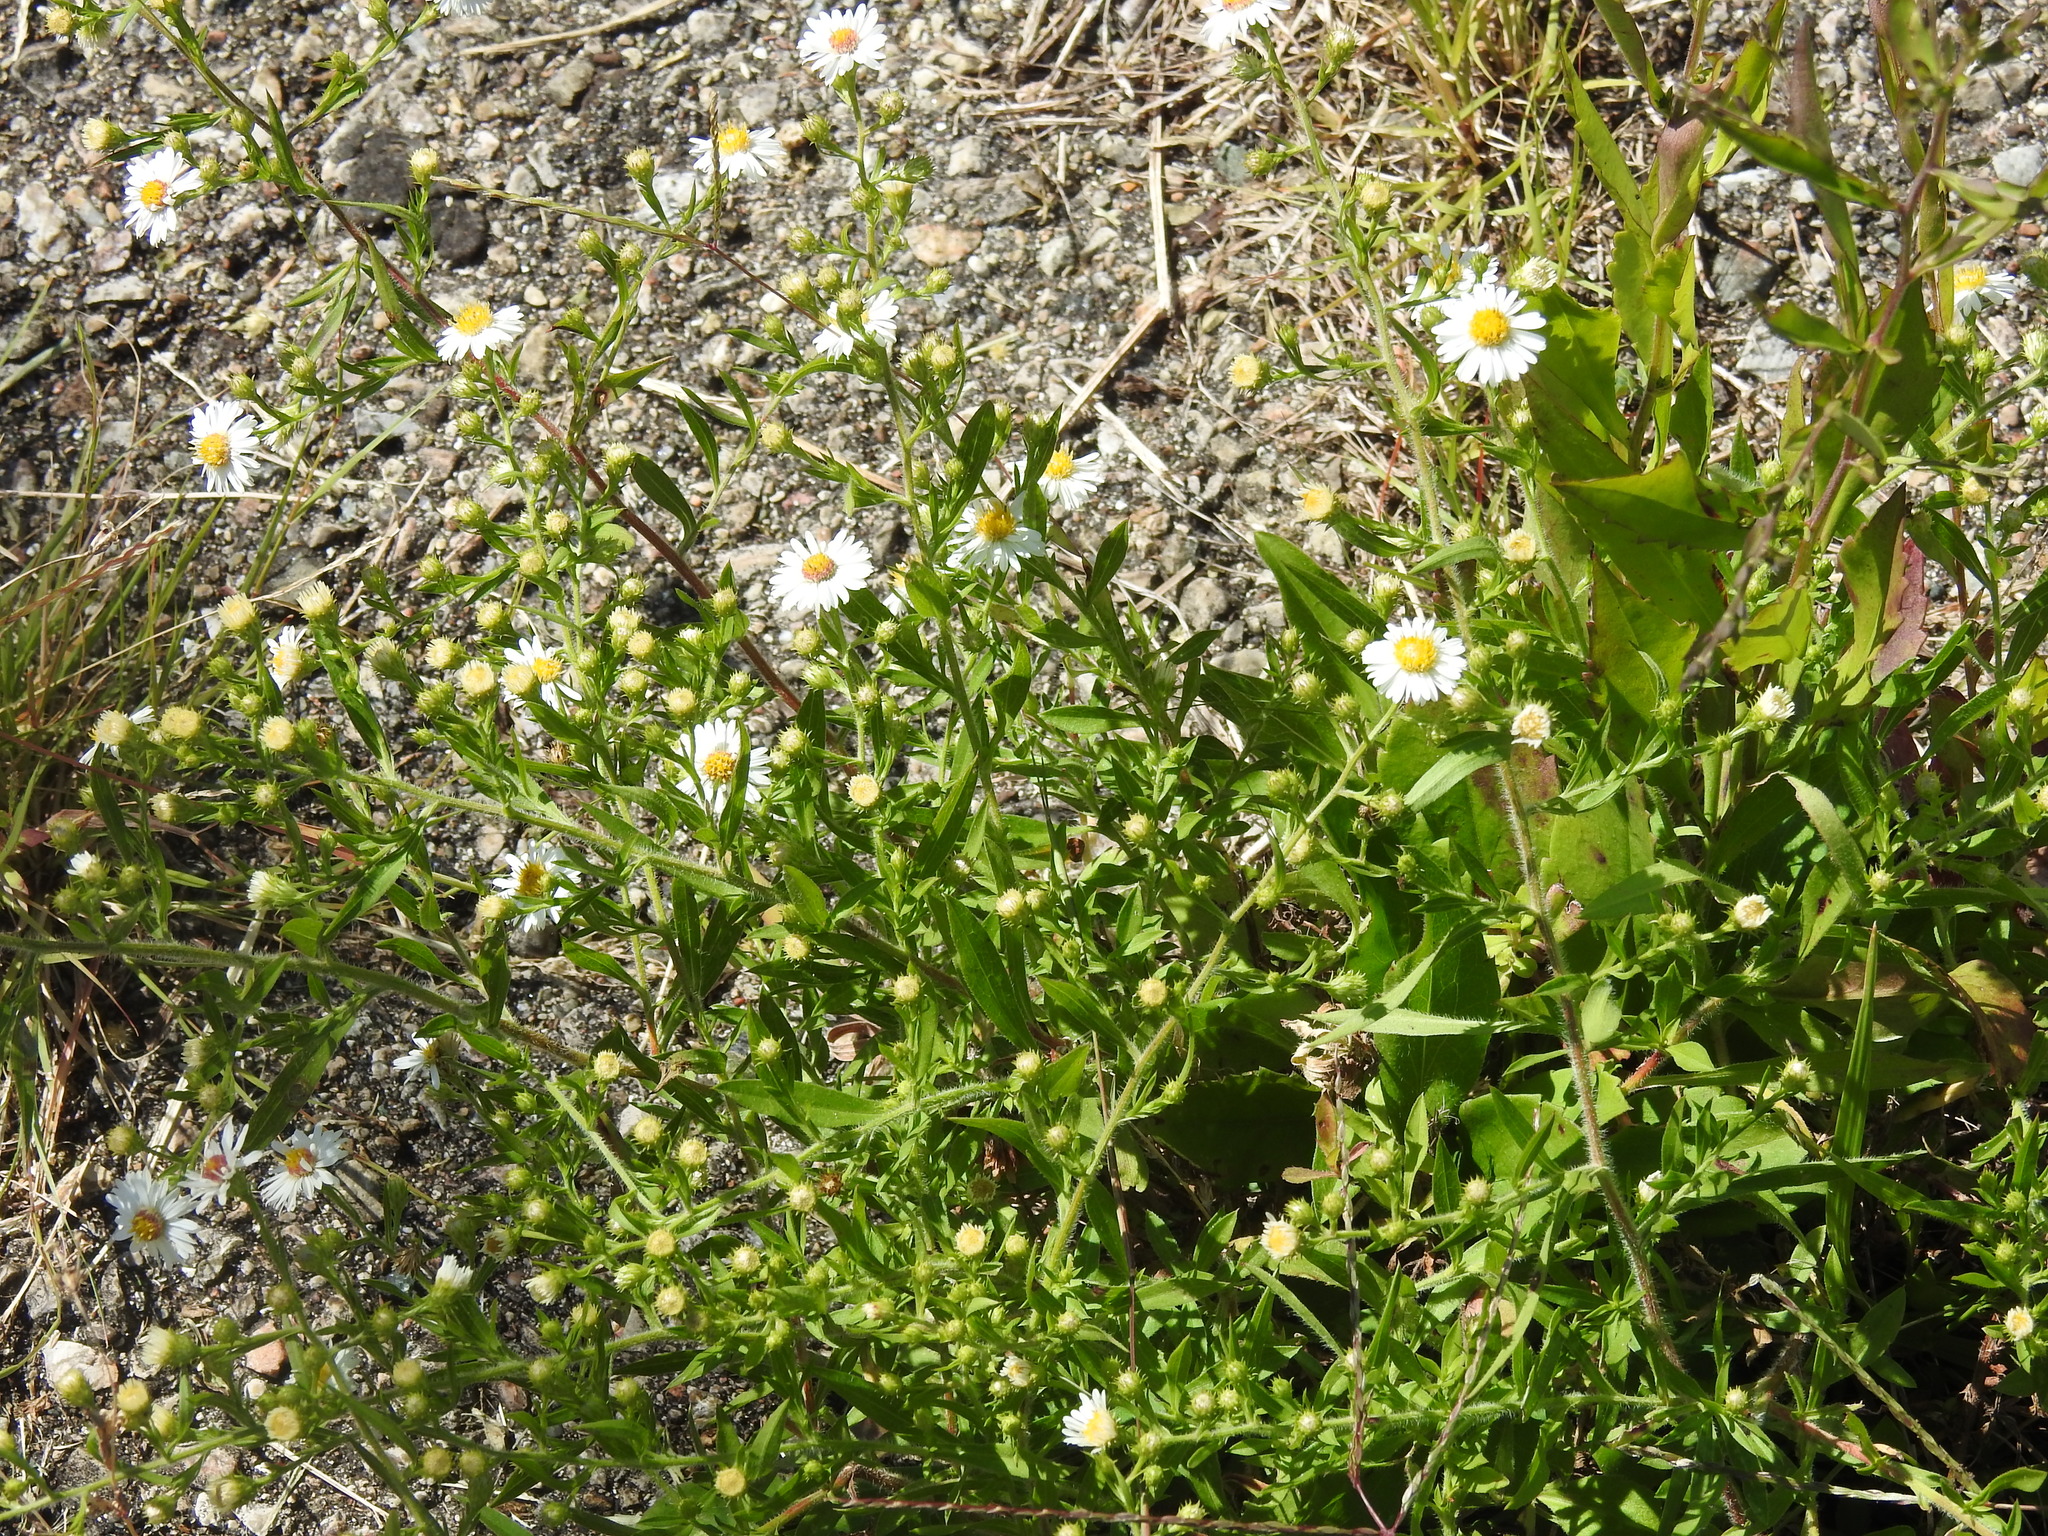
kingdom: Plantae
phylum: Tracheophyta
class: Magnoliopsida
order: Asterales
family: Asteraceae
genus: Erigeron
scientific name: Erigeron annuus
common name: Tall fleabane
